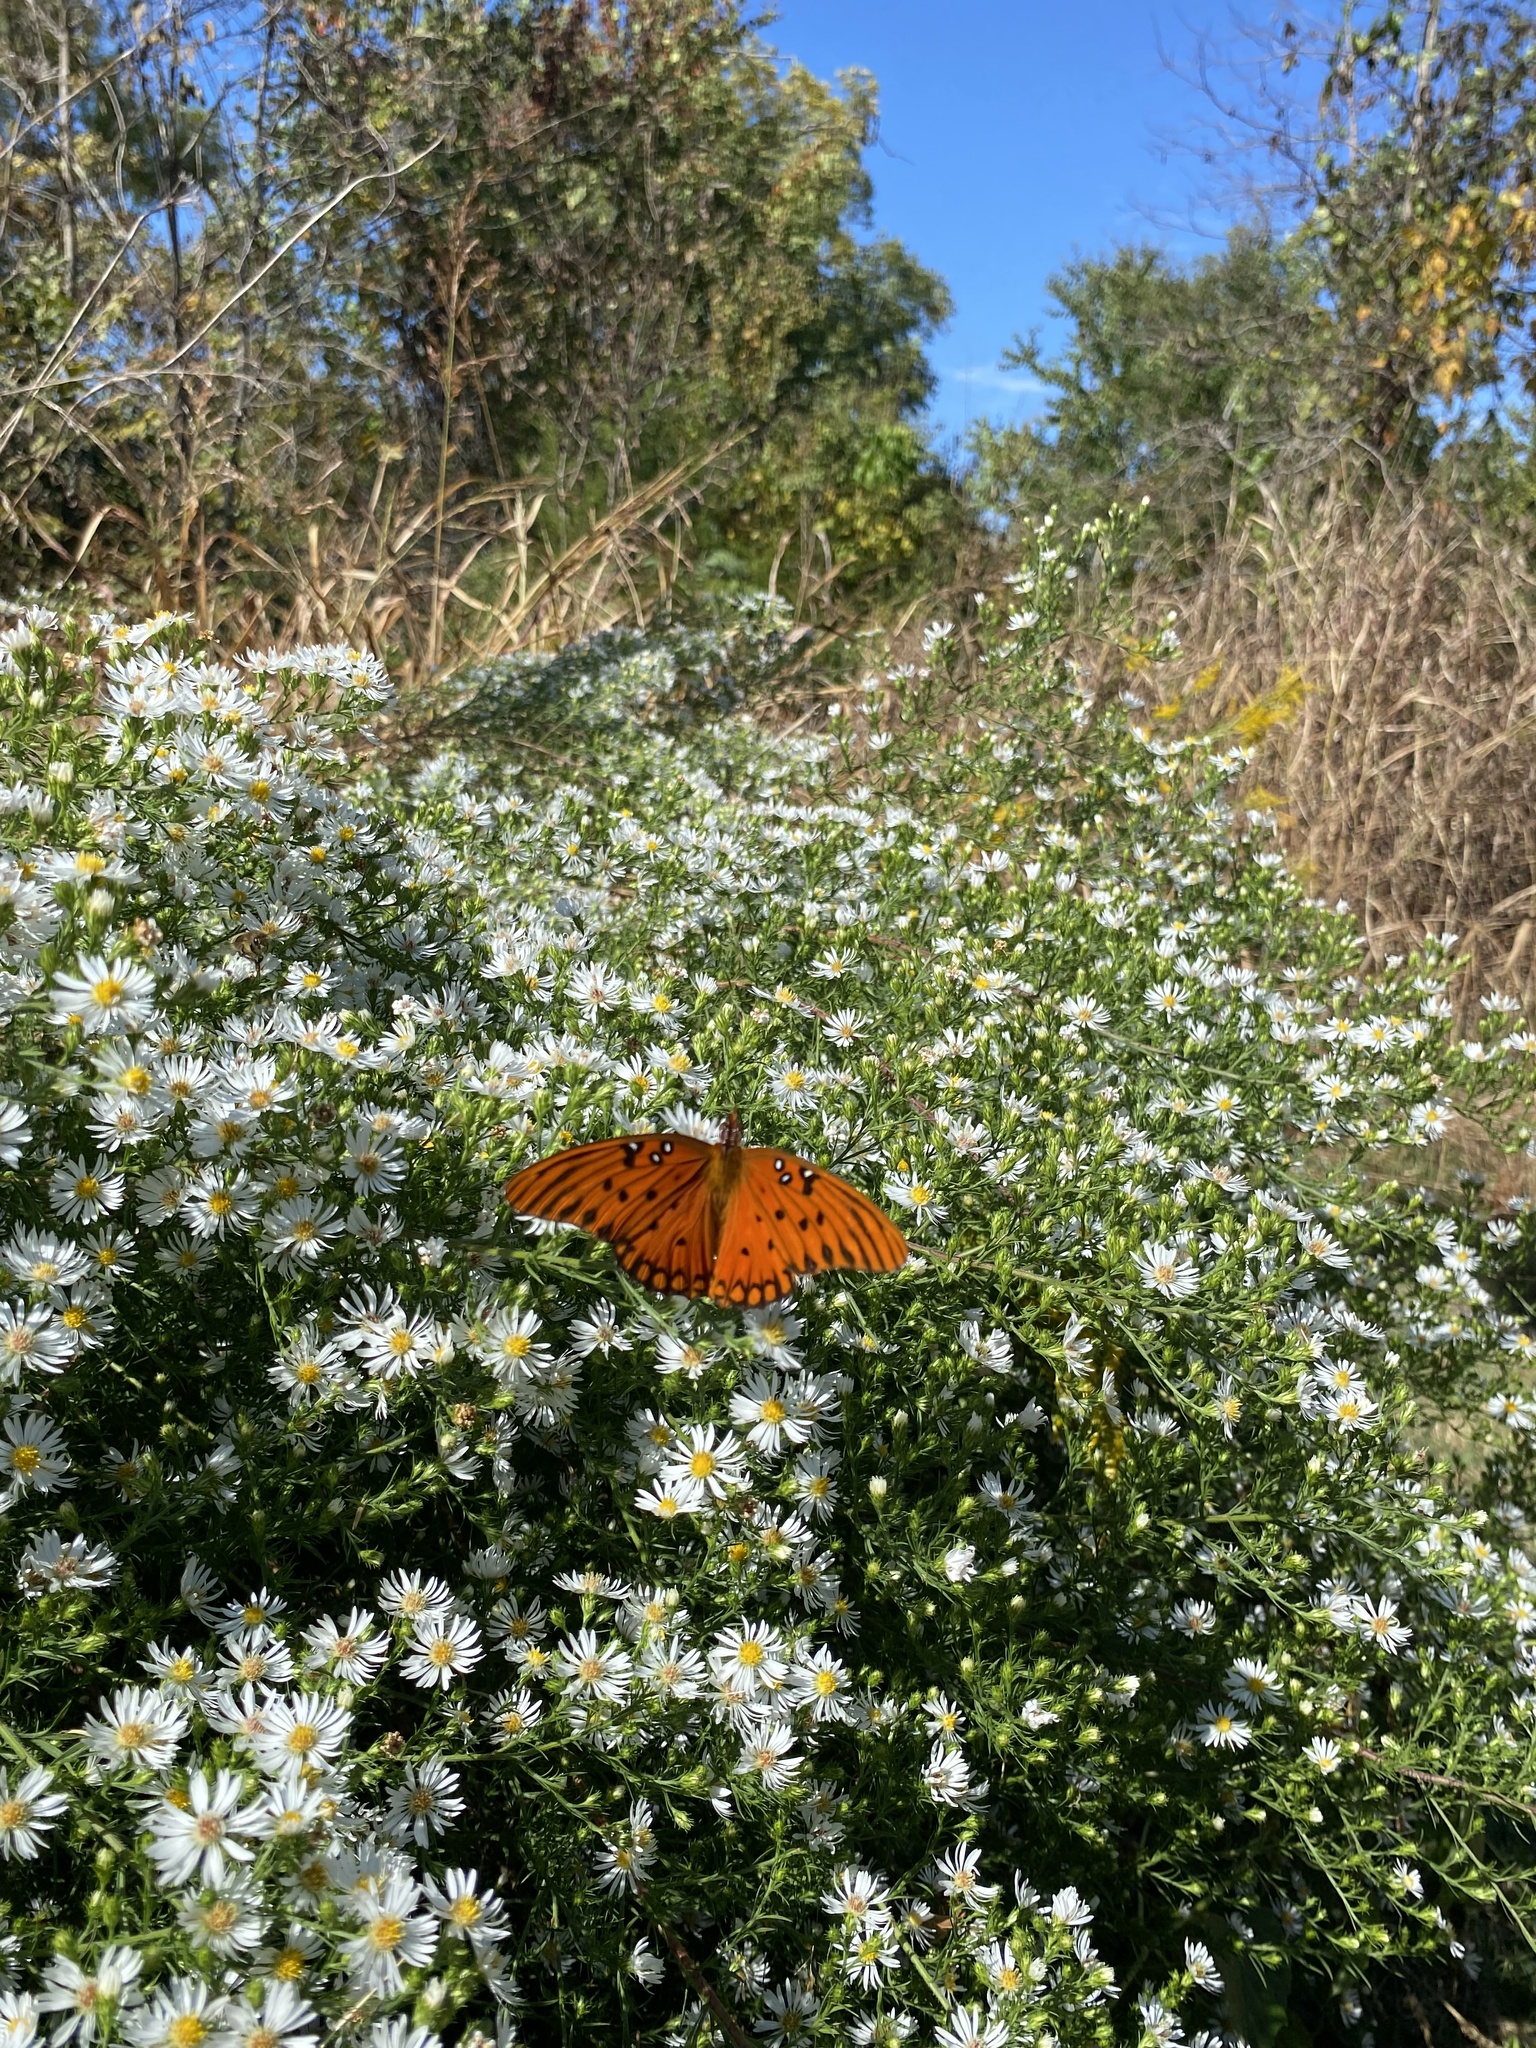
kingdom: Animalia
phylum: Arthropoda
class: Insecta
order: Lepidoptera
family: Nymphalidae
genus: Dione
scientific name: Dione vanillae
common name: Gulf fritillary
